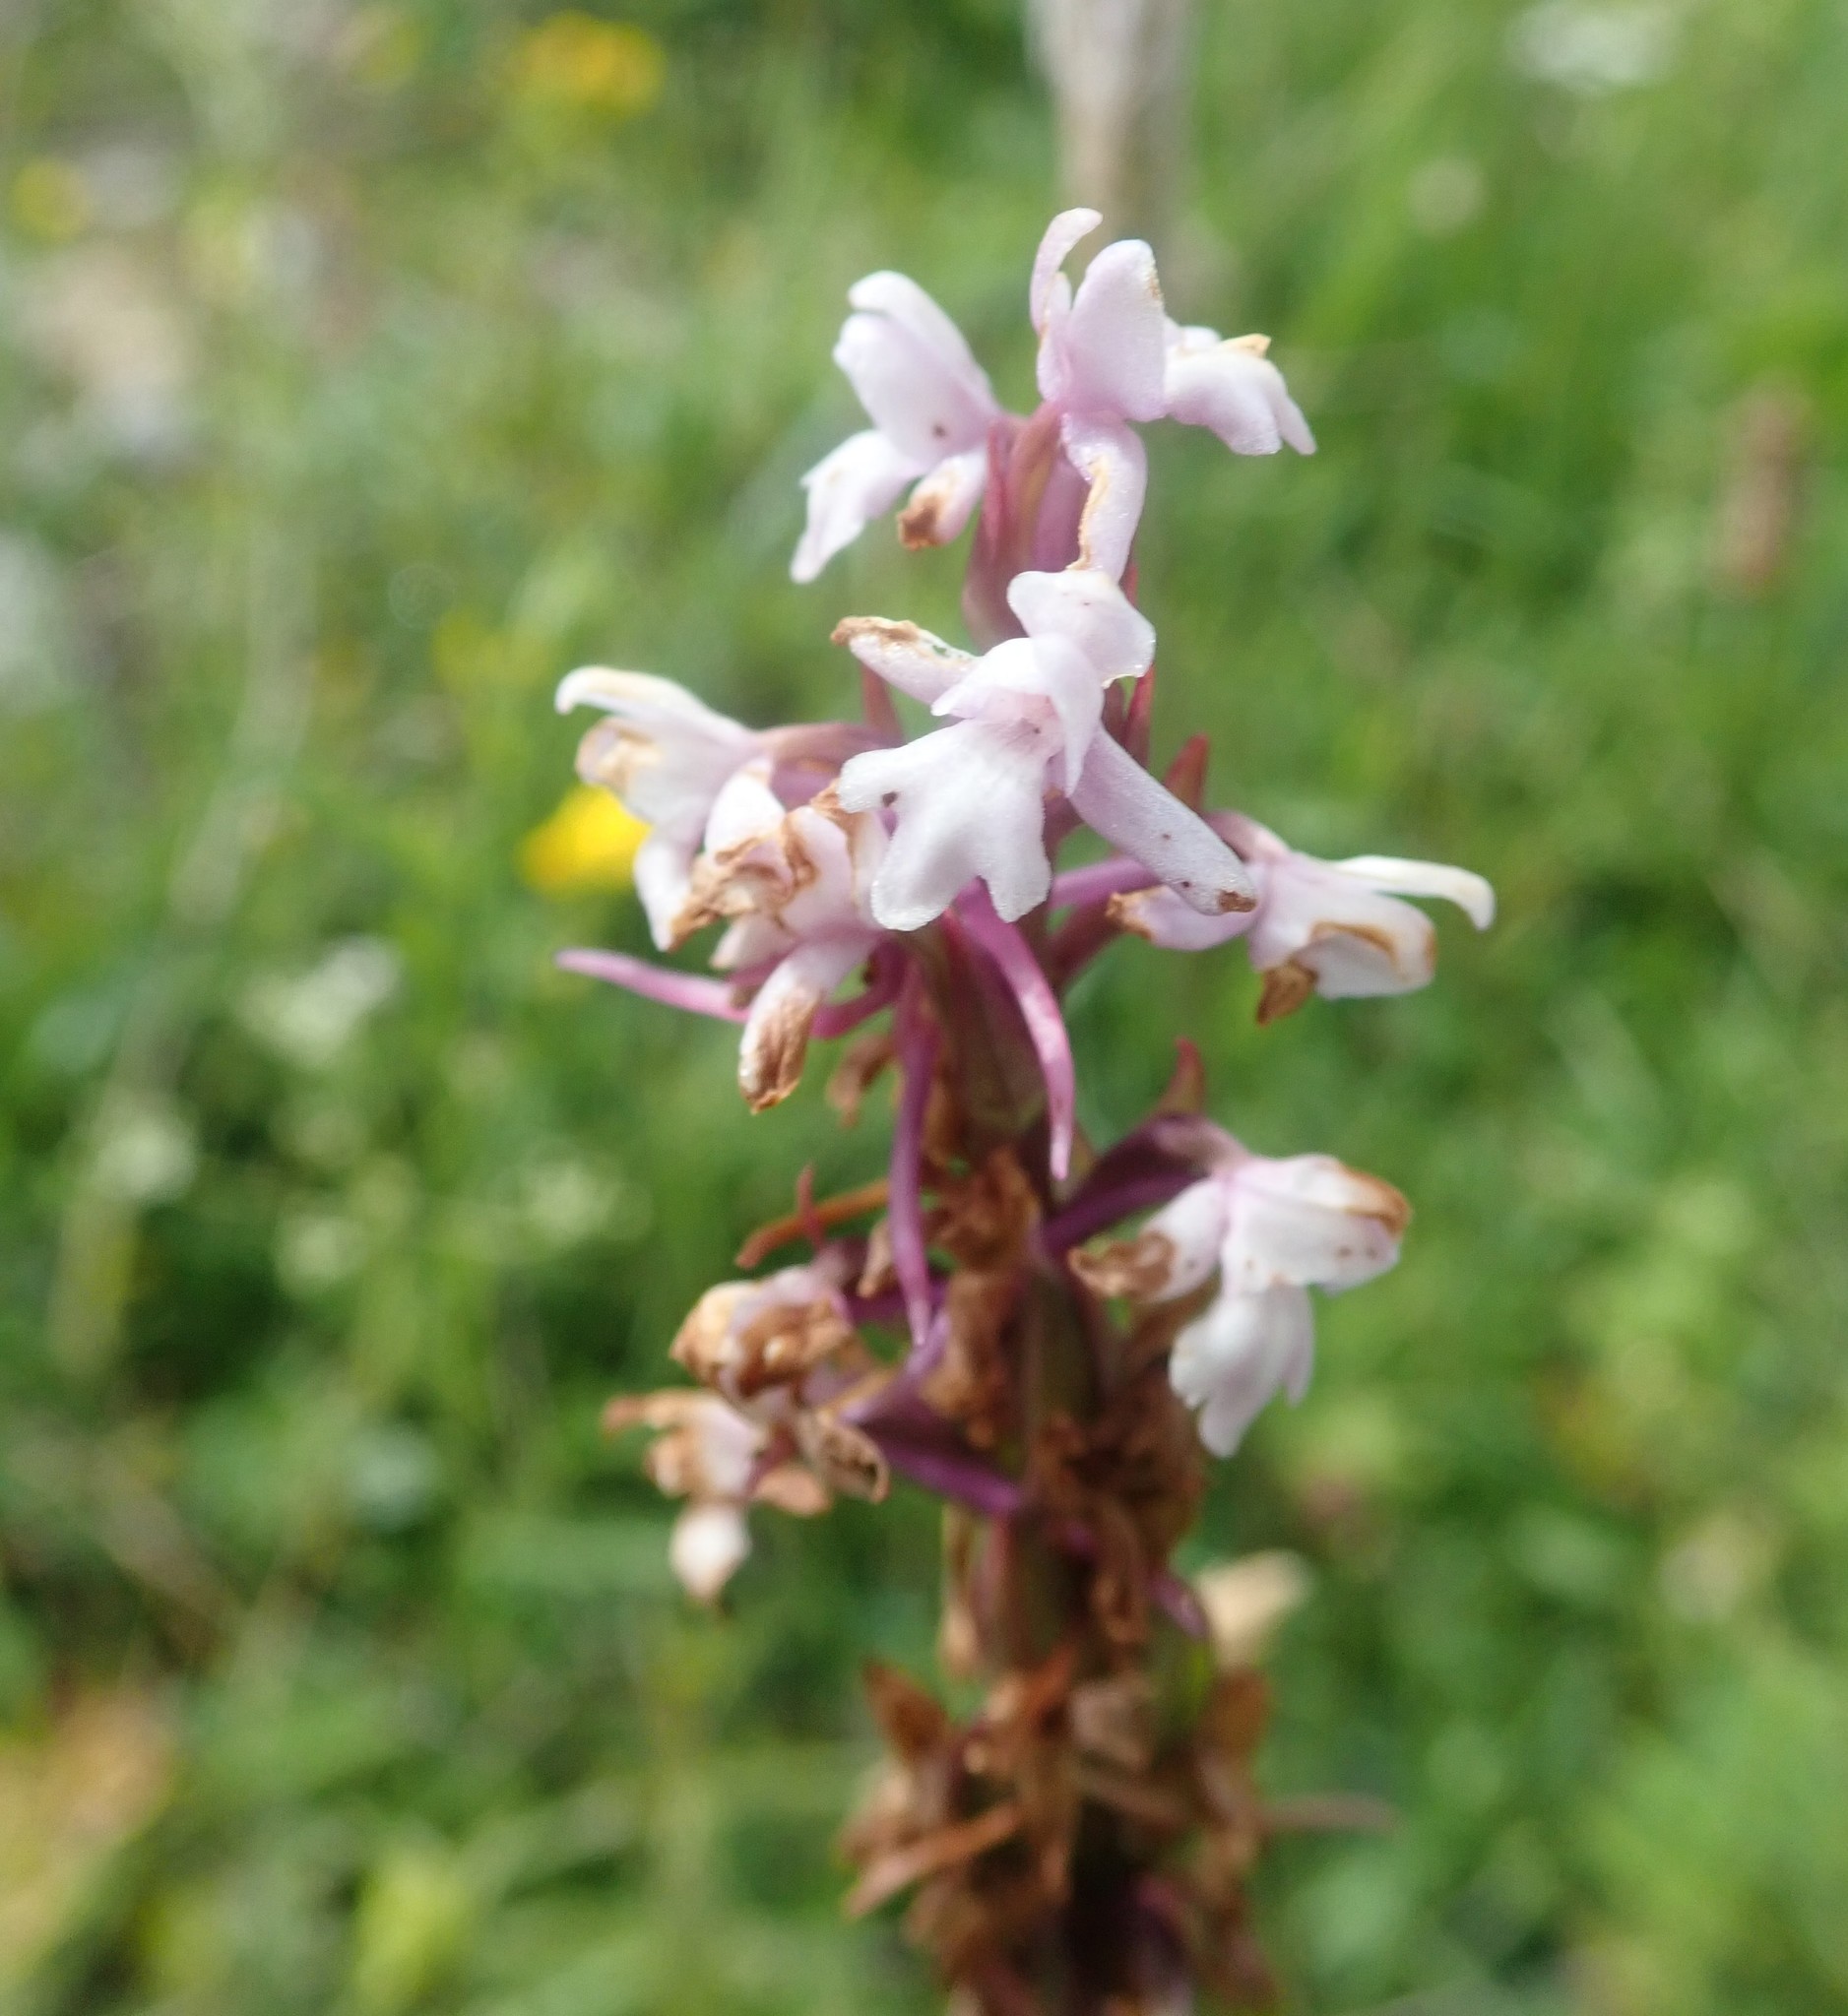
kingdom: Plantae
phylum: Tracheophyta
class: Liliopsida
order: Asparagales
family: Orchidaceae
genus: Gymnadenia
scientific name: Gymnadenia conopsea
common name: Fragrant orchid
